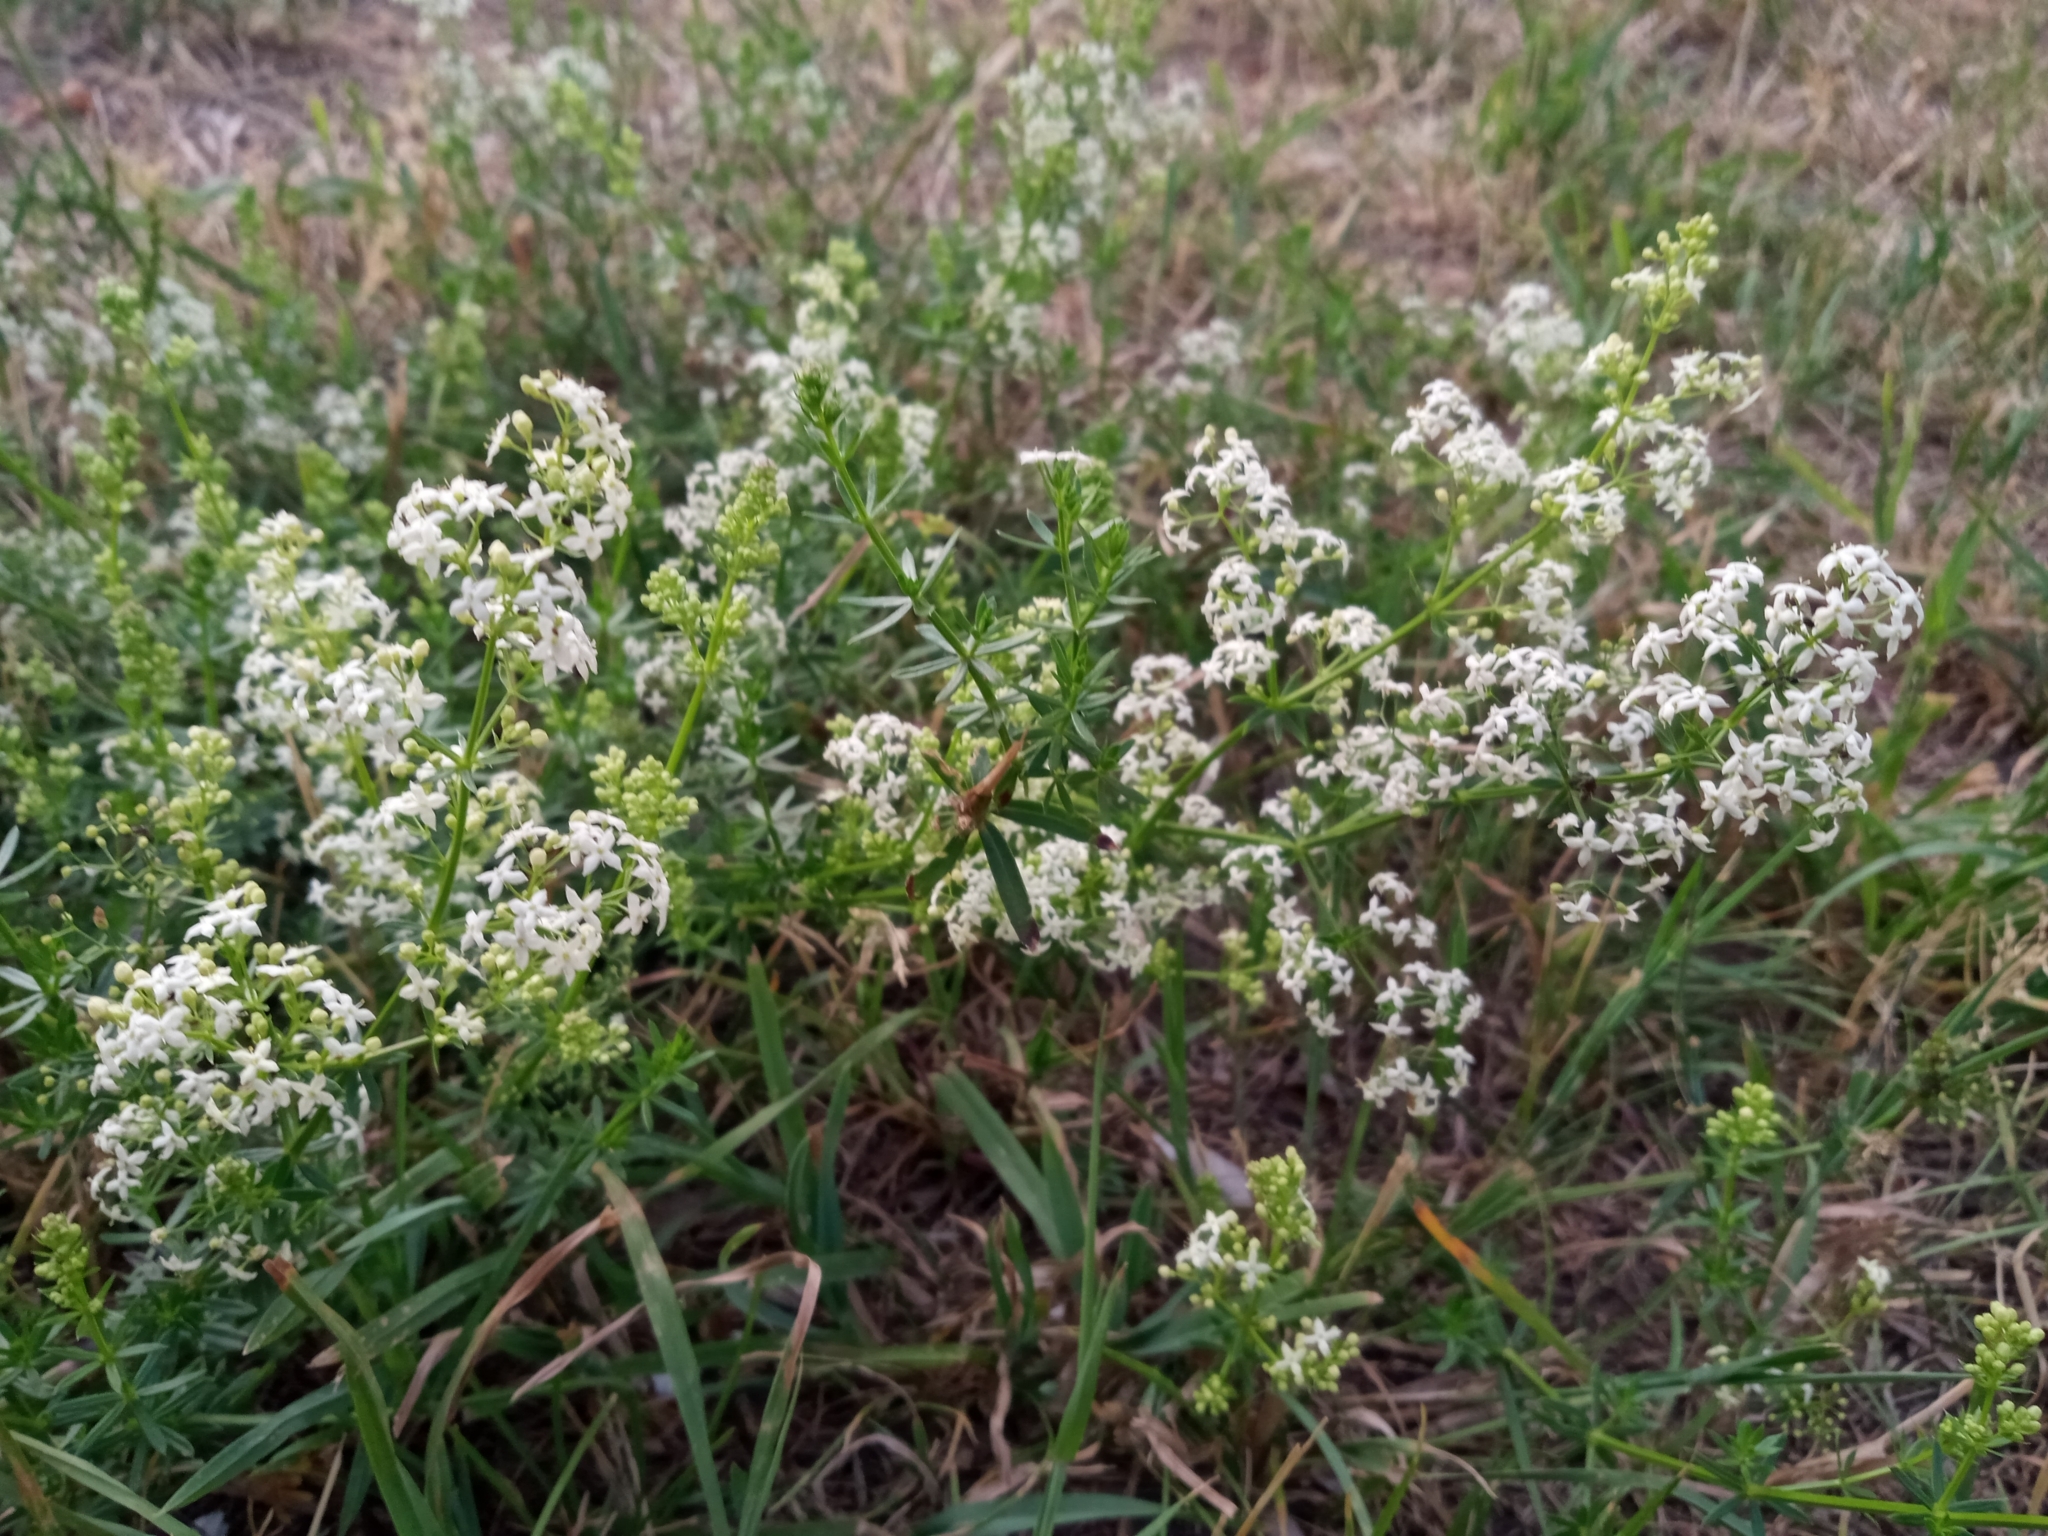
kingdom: Plantae
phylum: Tracheophyta
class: Magnoliopsida
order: Gentianales
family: Rubiaceae
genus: Galium
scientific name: Galium album
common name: White bedstraw
